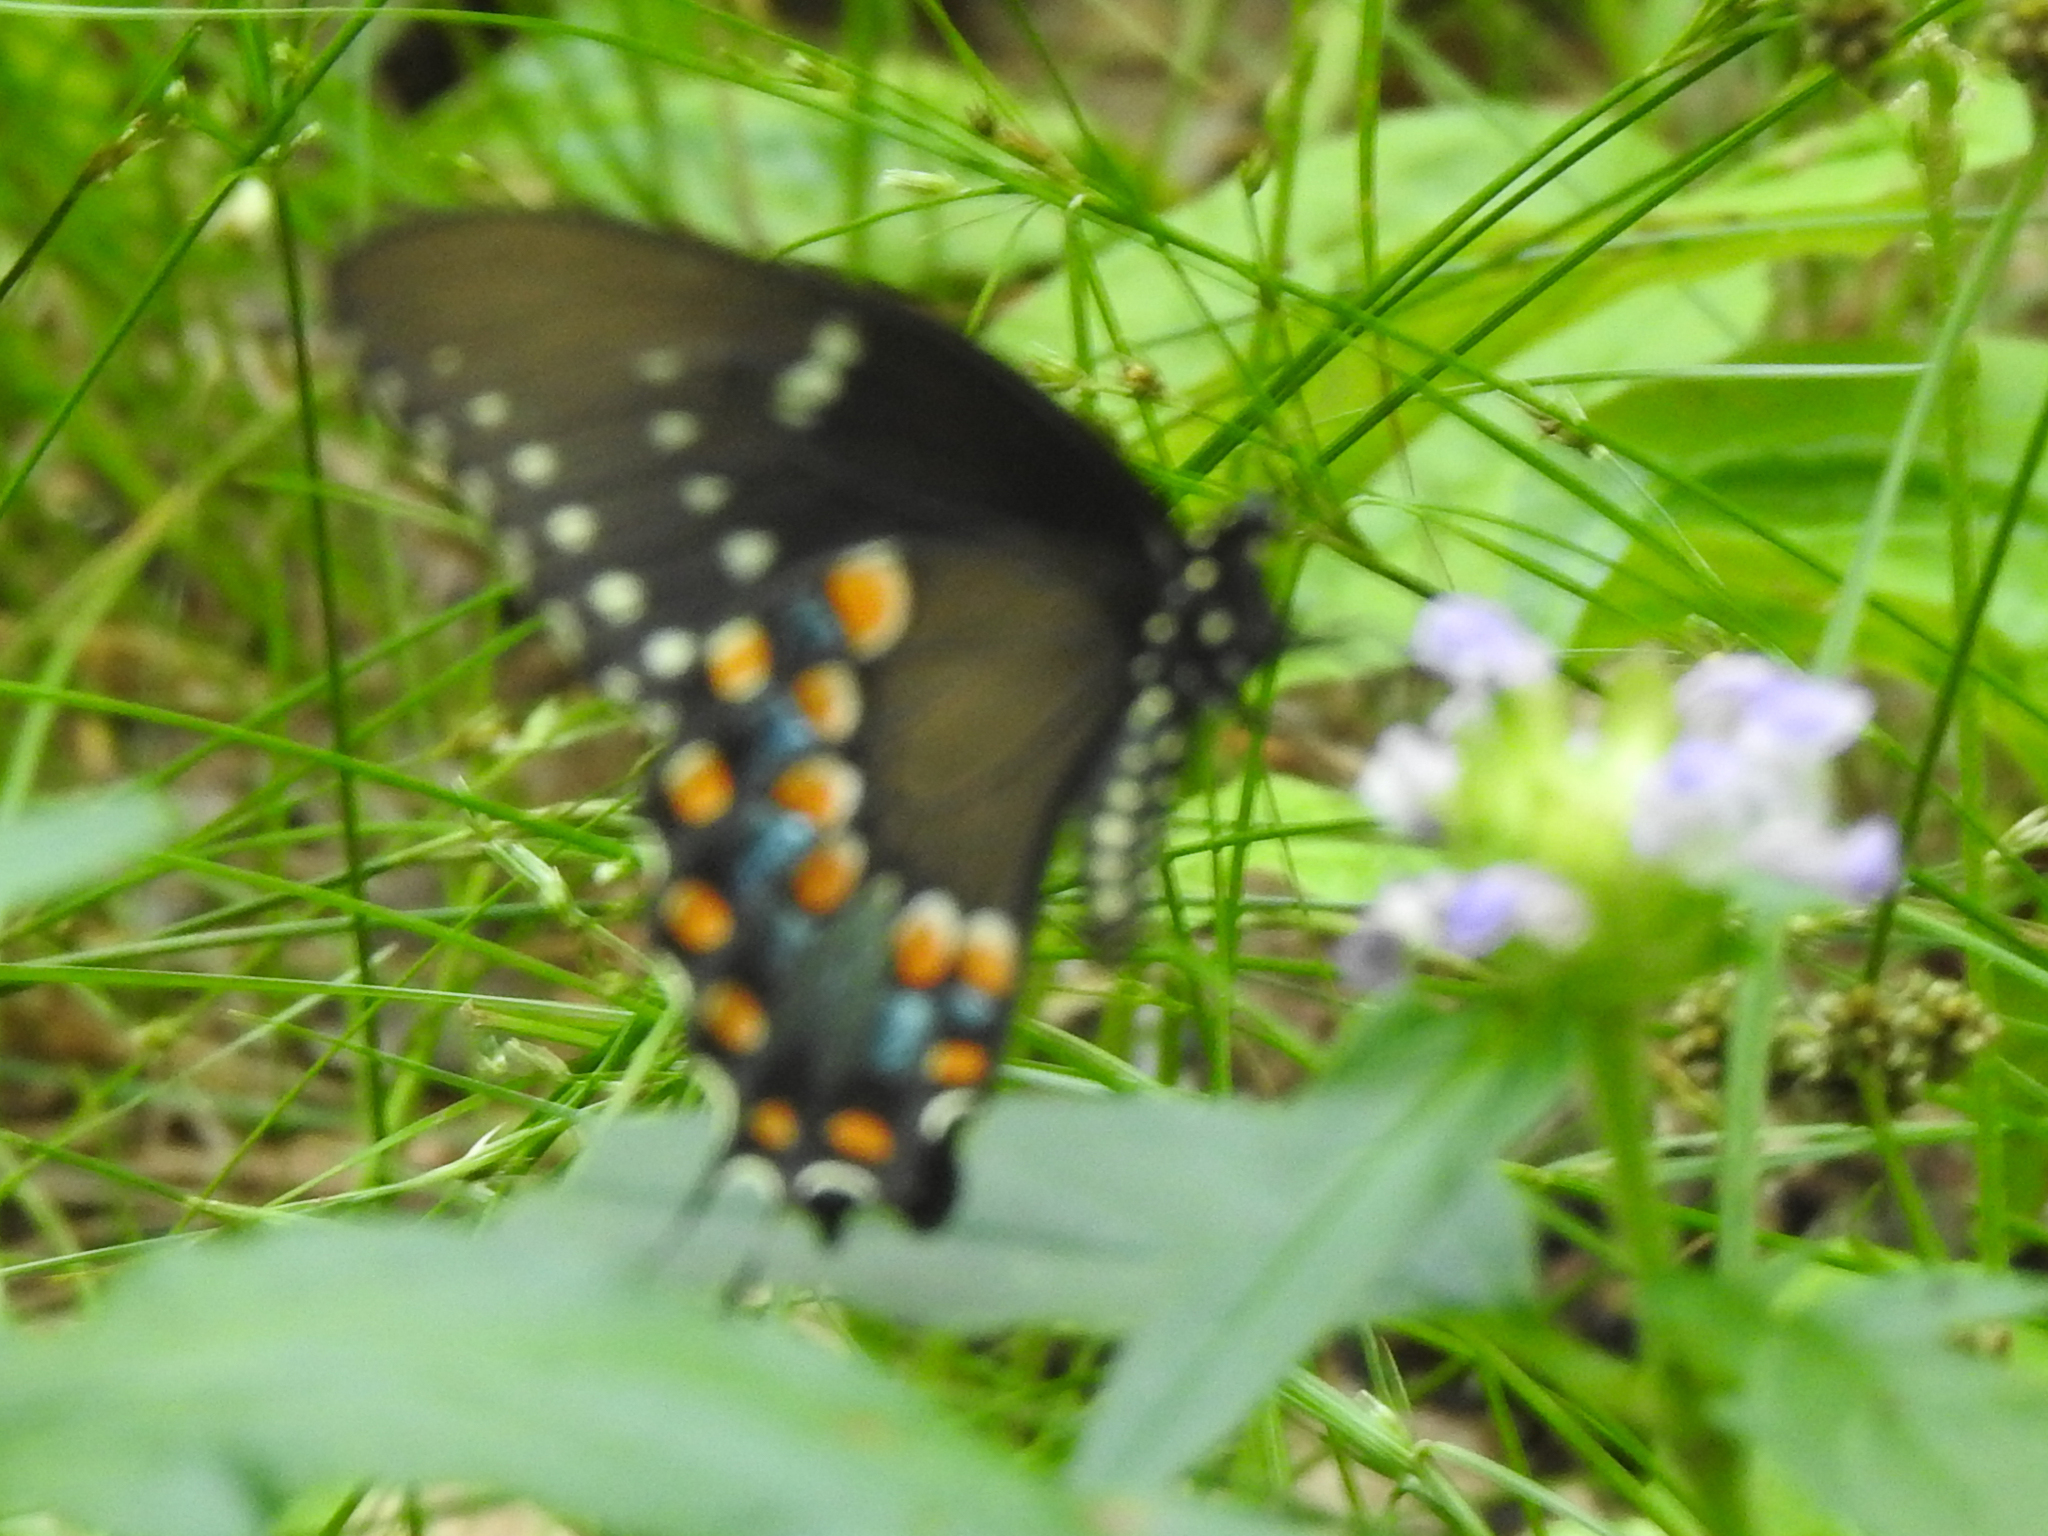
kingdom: Animalia
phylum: Arthropoda
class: Insecta
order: Lepidoptera
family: Papilionidae
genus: Papilio
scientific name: Papilio troilus
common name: Spicebush swallowtail
